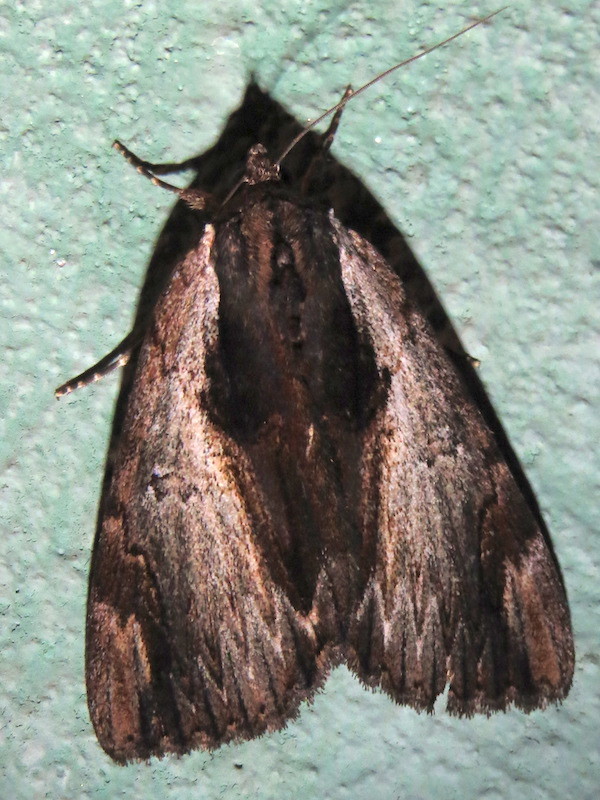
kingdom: Animalia
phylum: Arthropoda
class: Insecta
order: Lepidoptera
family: Erebidae
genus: Catocala
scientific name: Catocala ultronia
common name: Ultronia underwing
